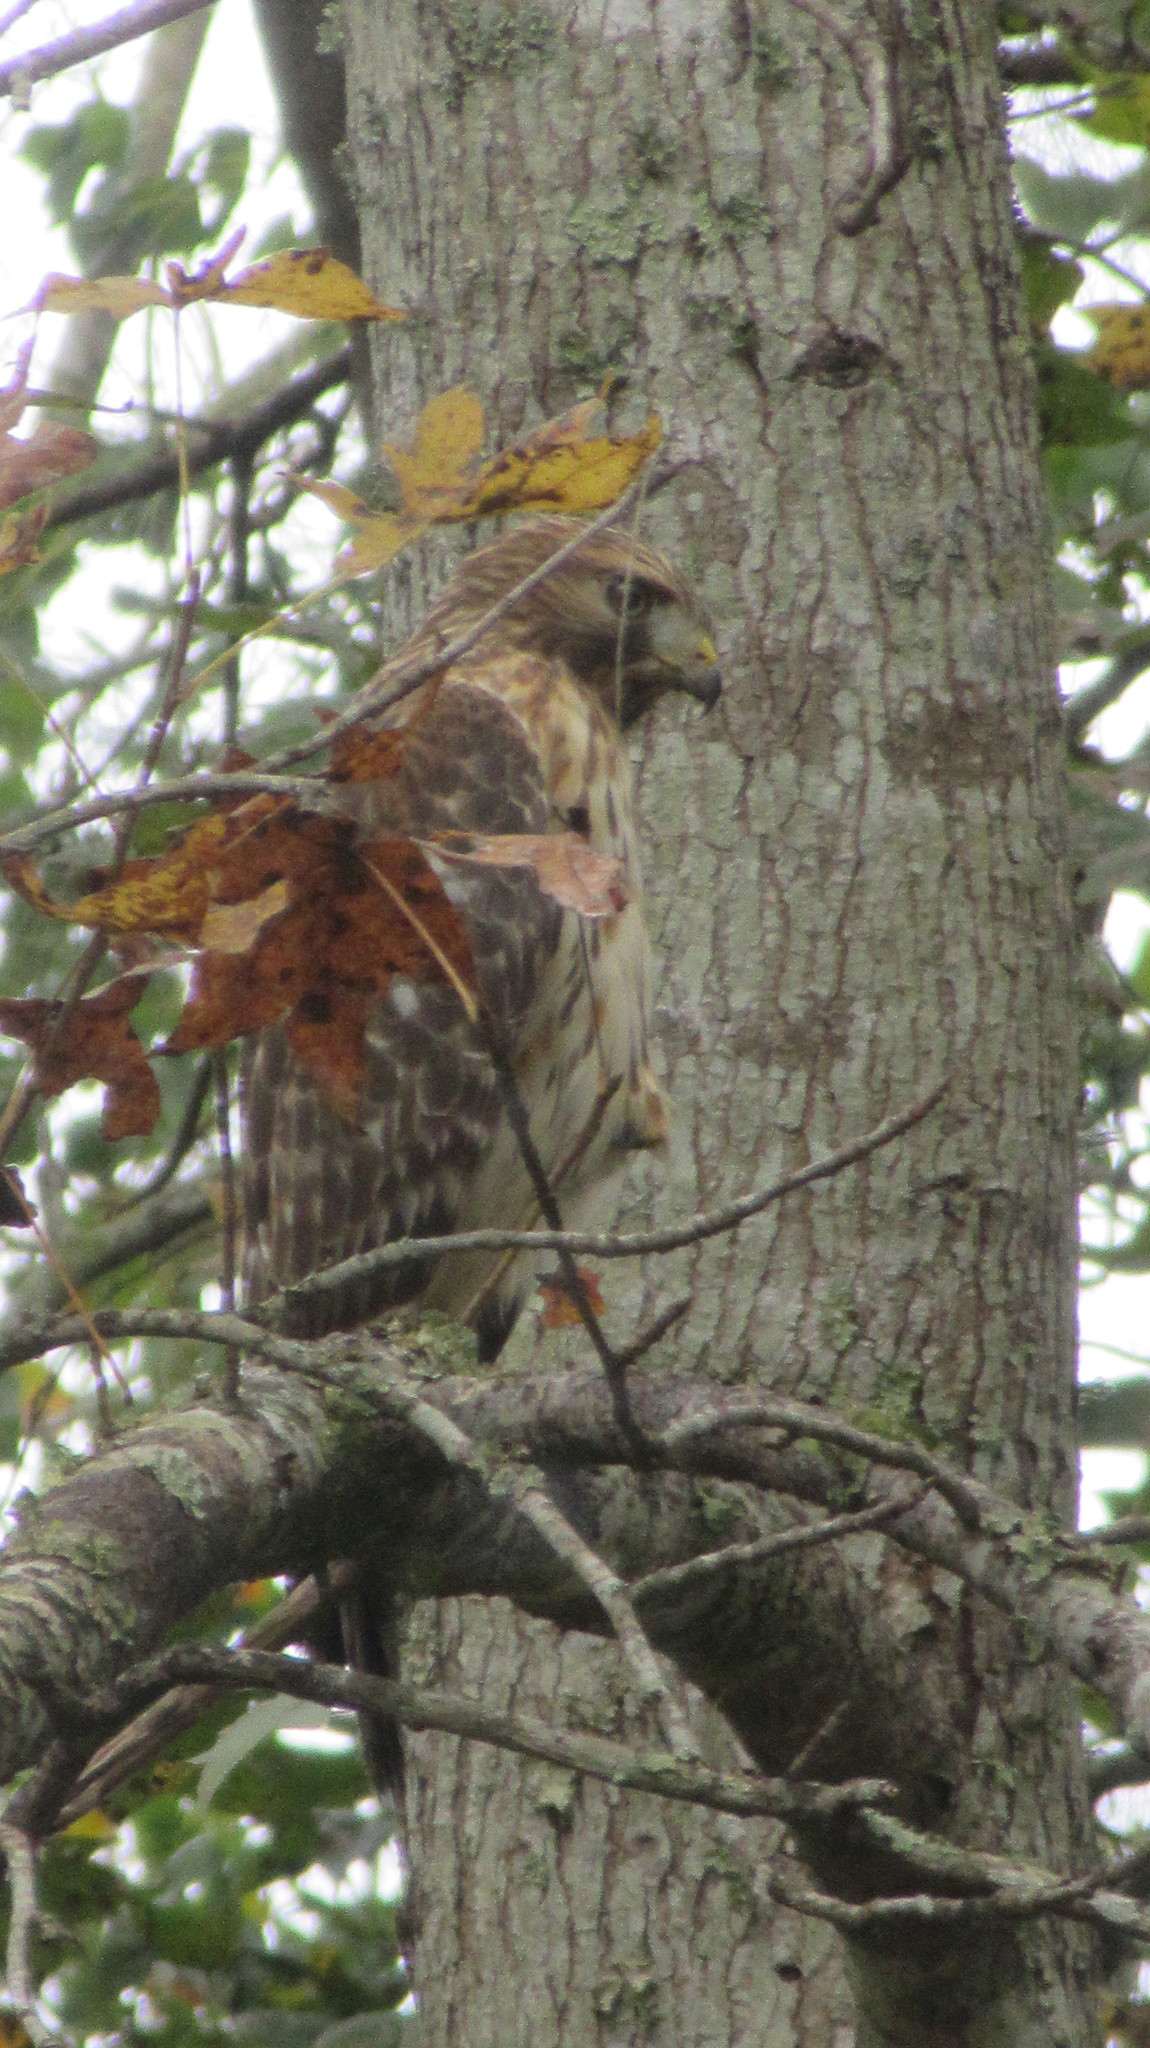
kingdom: Animalia
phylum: Chordata
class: Aves
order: Accipitriformes
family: Accipitridae
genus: Buteo
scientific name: Buteo lineatus
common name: Red-shouldered hawk
